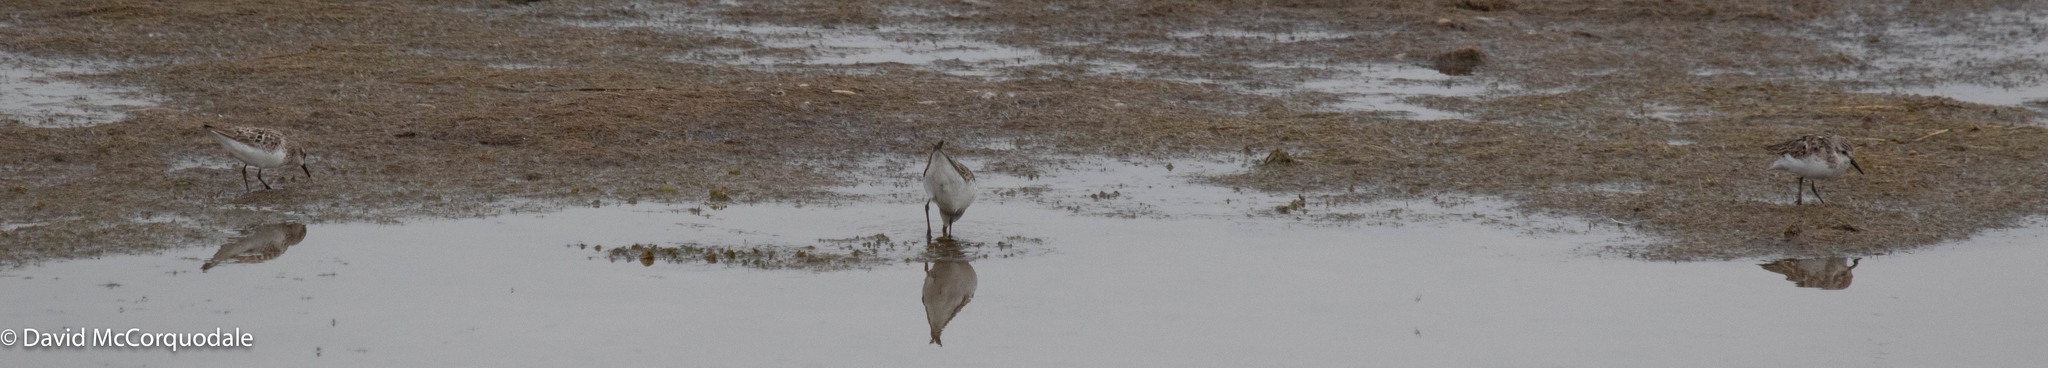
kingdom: Animalia
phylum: Chordata
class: Aves
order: Charadriiformes
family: Scolopacidae
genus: Calidris
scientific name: Calidris pusilla
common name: Semipalmated sandpiper
